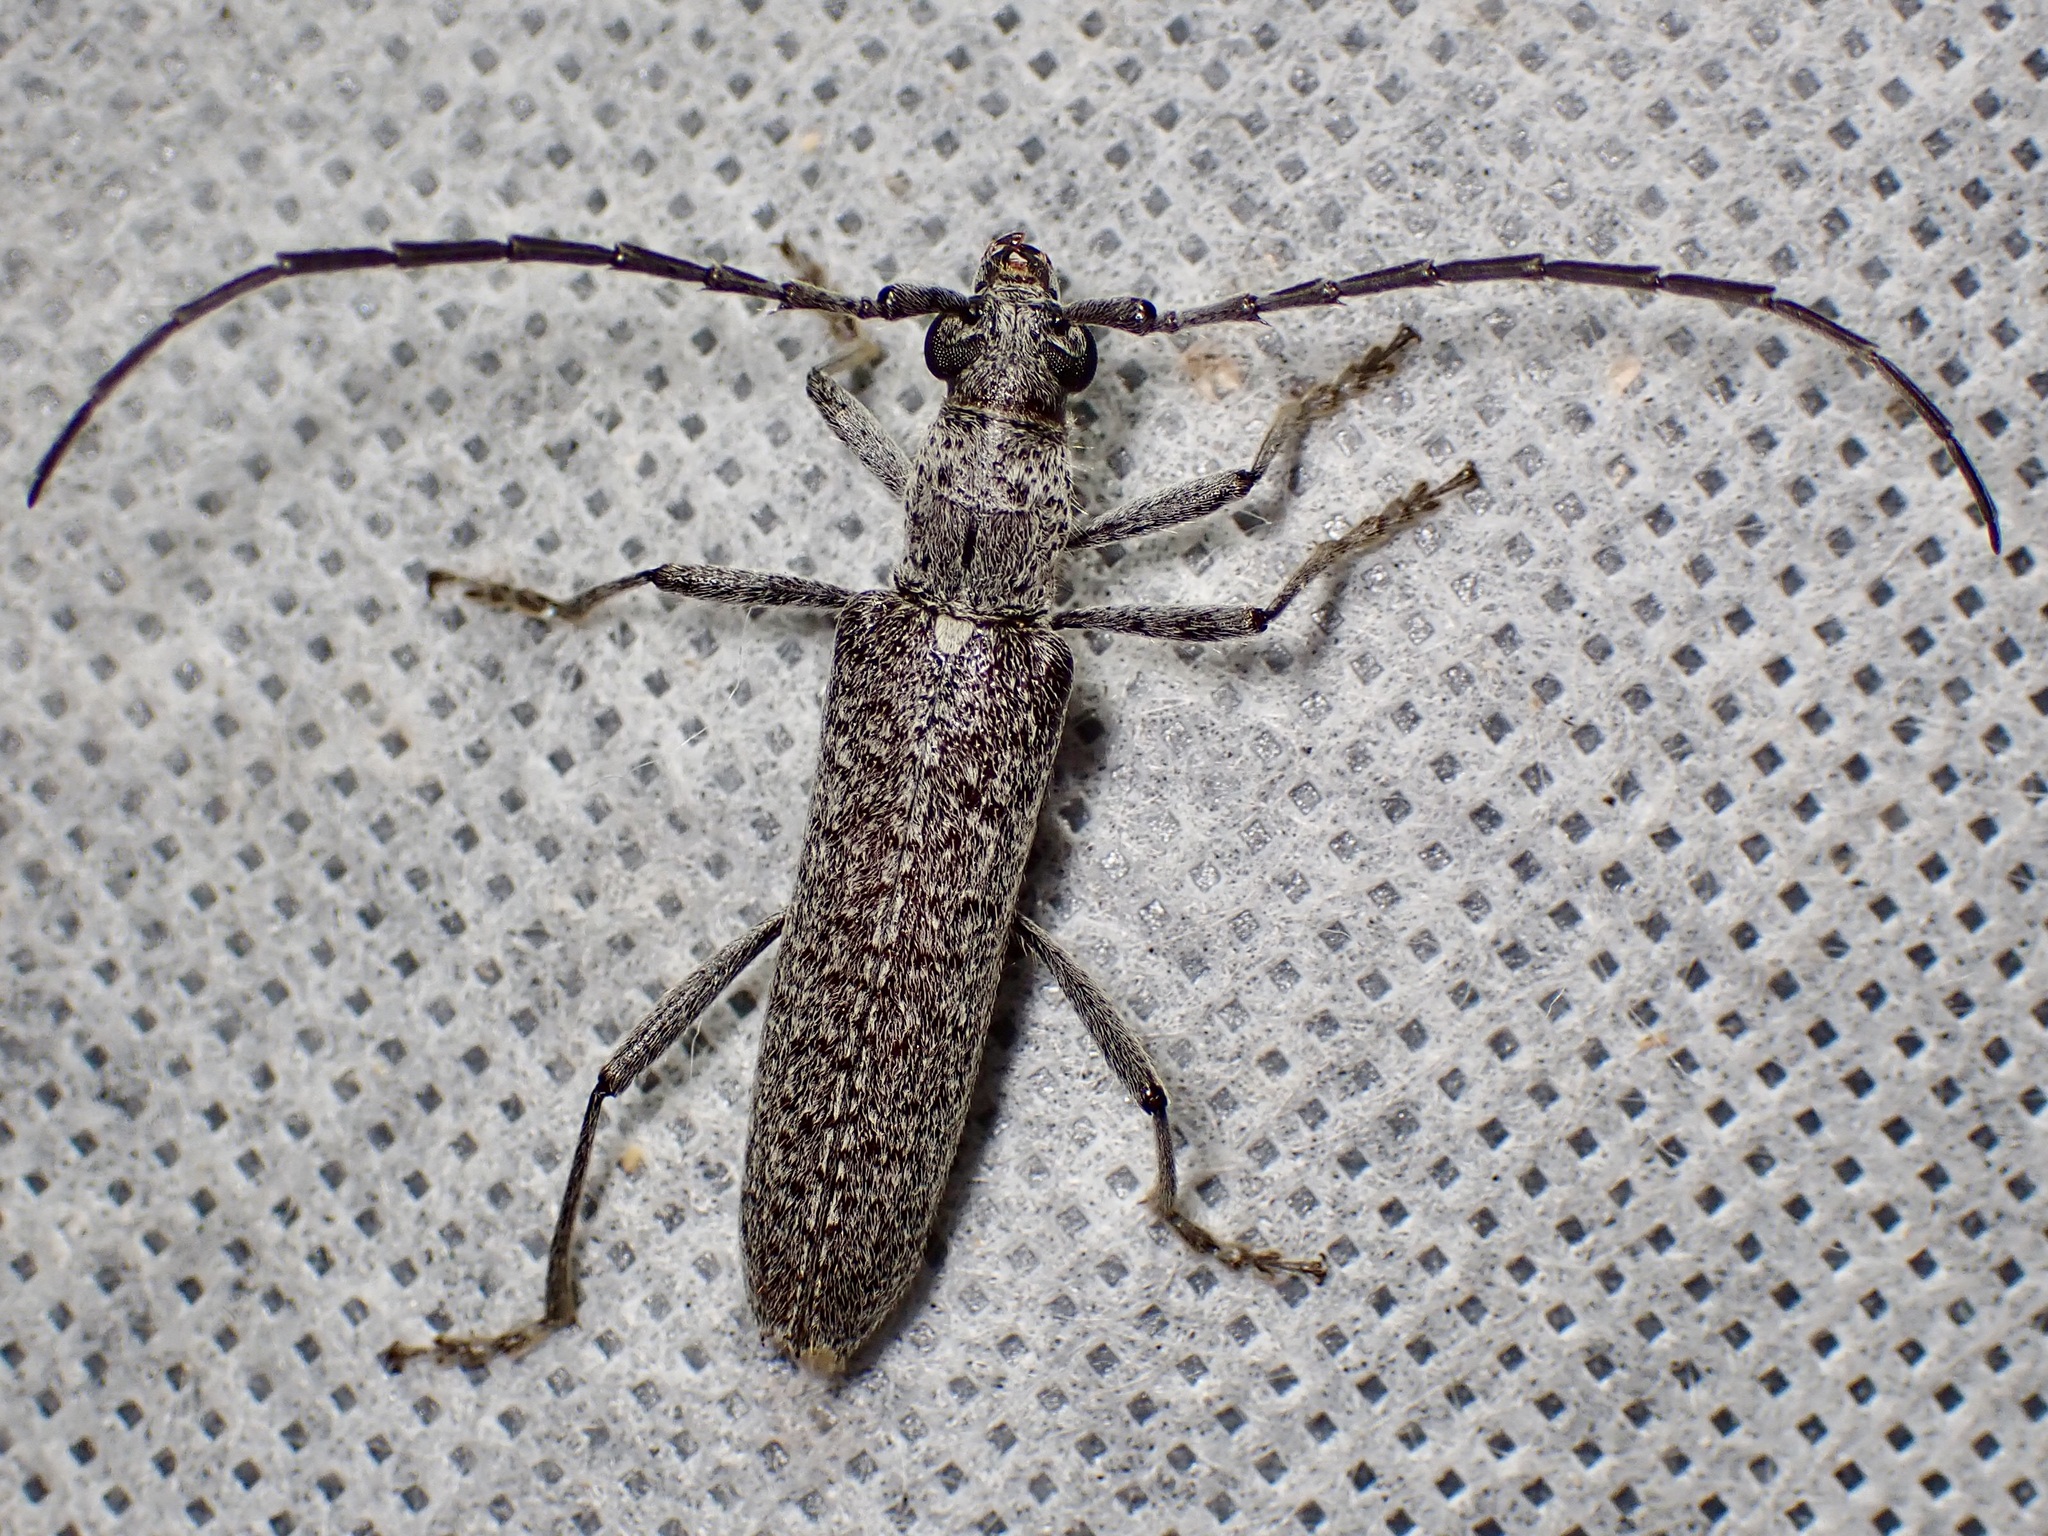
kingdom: Animalia
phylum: Arthropoda
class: Insecta
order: Coleoptera
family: Cerambycidae
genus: Aneflus
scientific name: Aneflus prolixus
